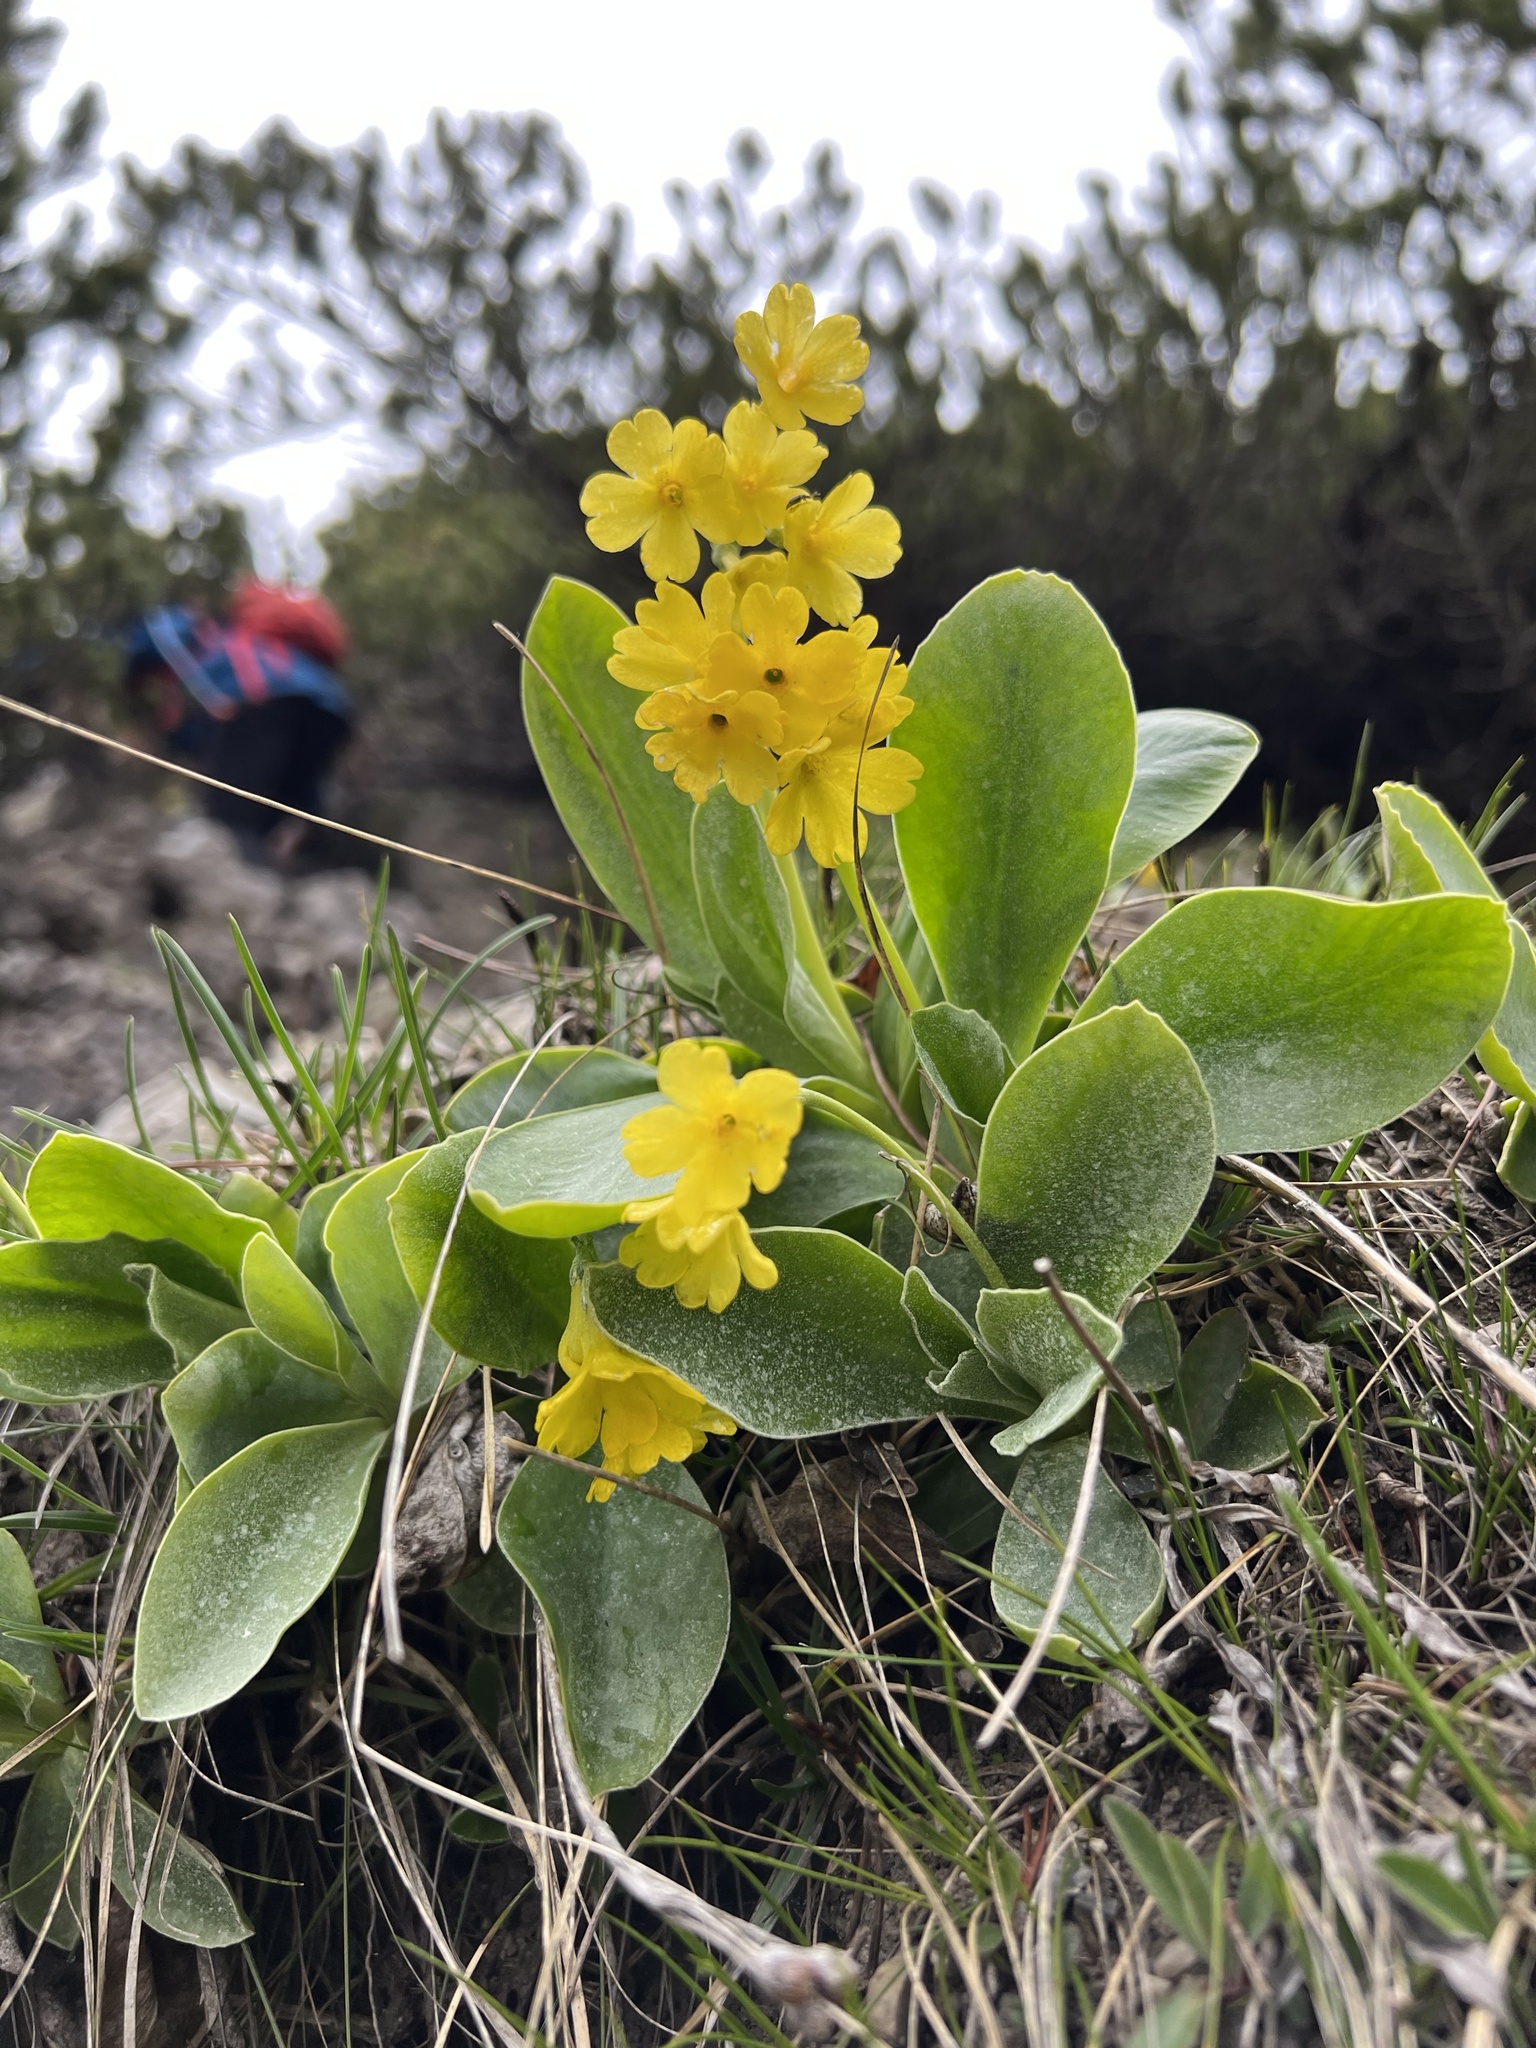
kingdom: Plantae
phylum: Tracheophyta
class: Magnoliopsida
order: Ericales
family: Primulaceae
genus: Primula
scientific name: Primula auricula
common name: Auricula
